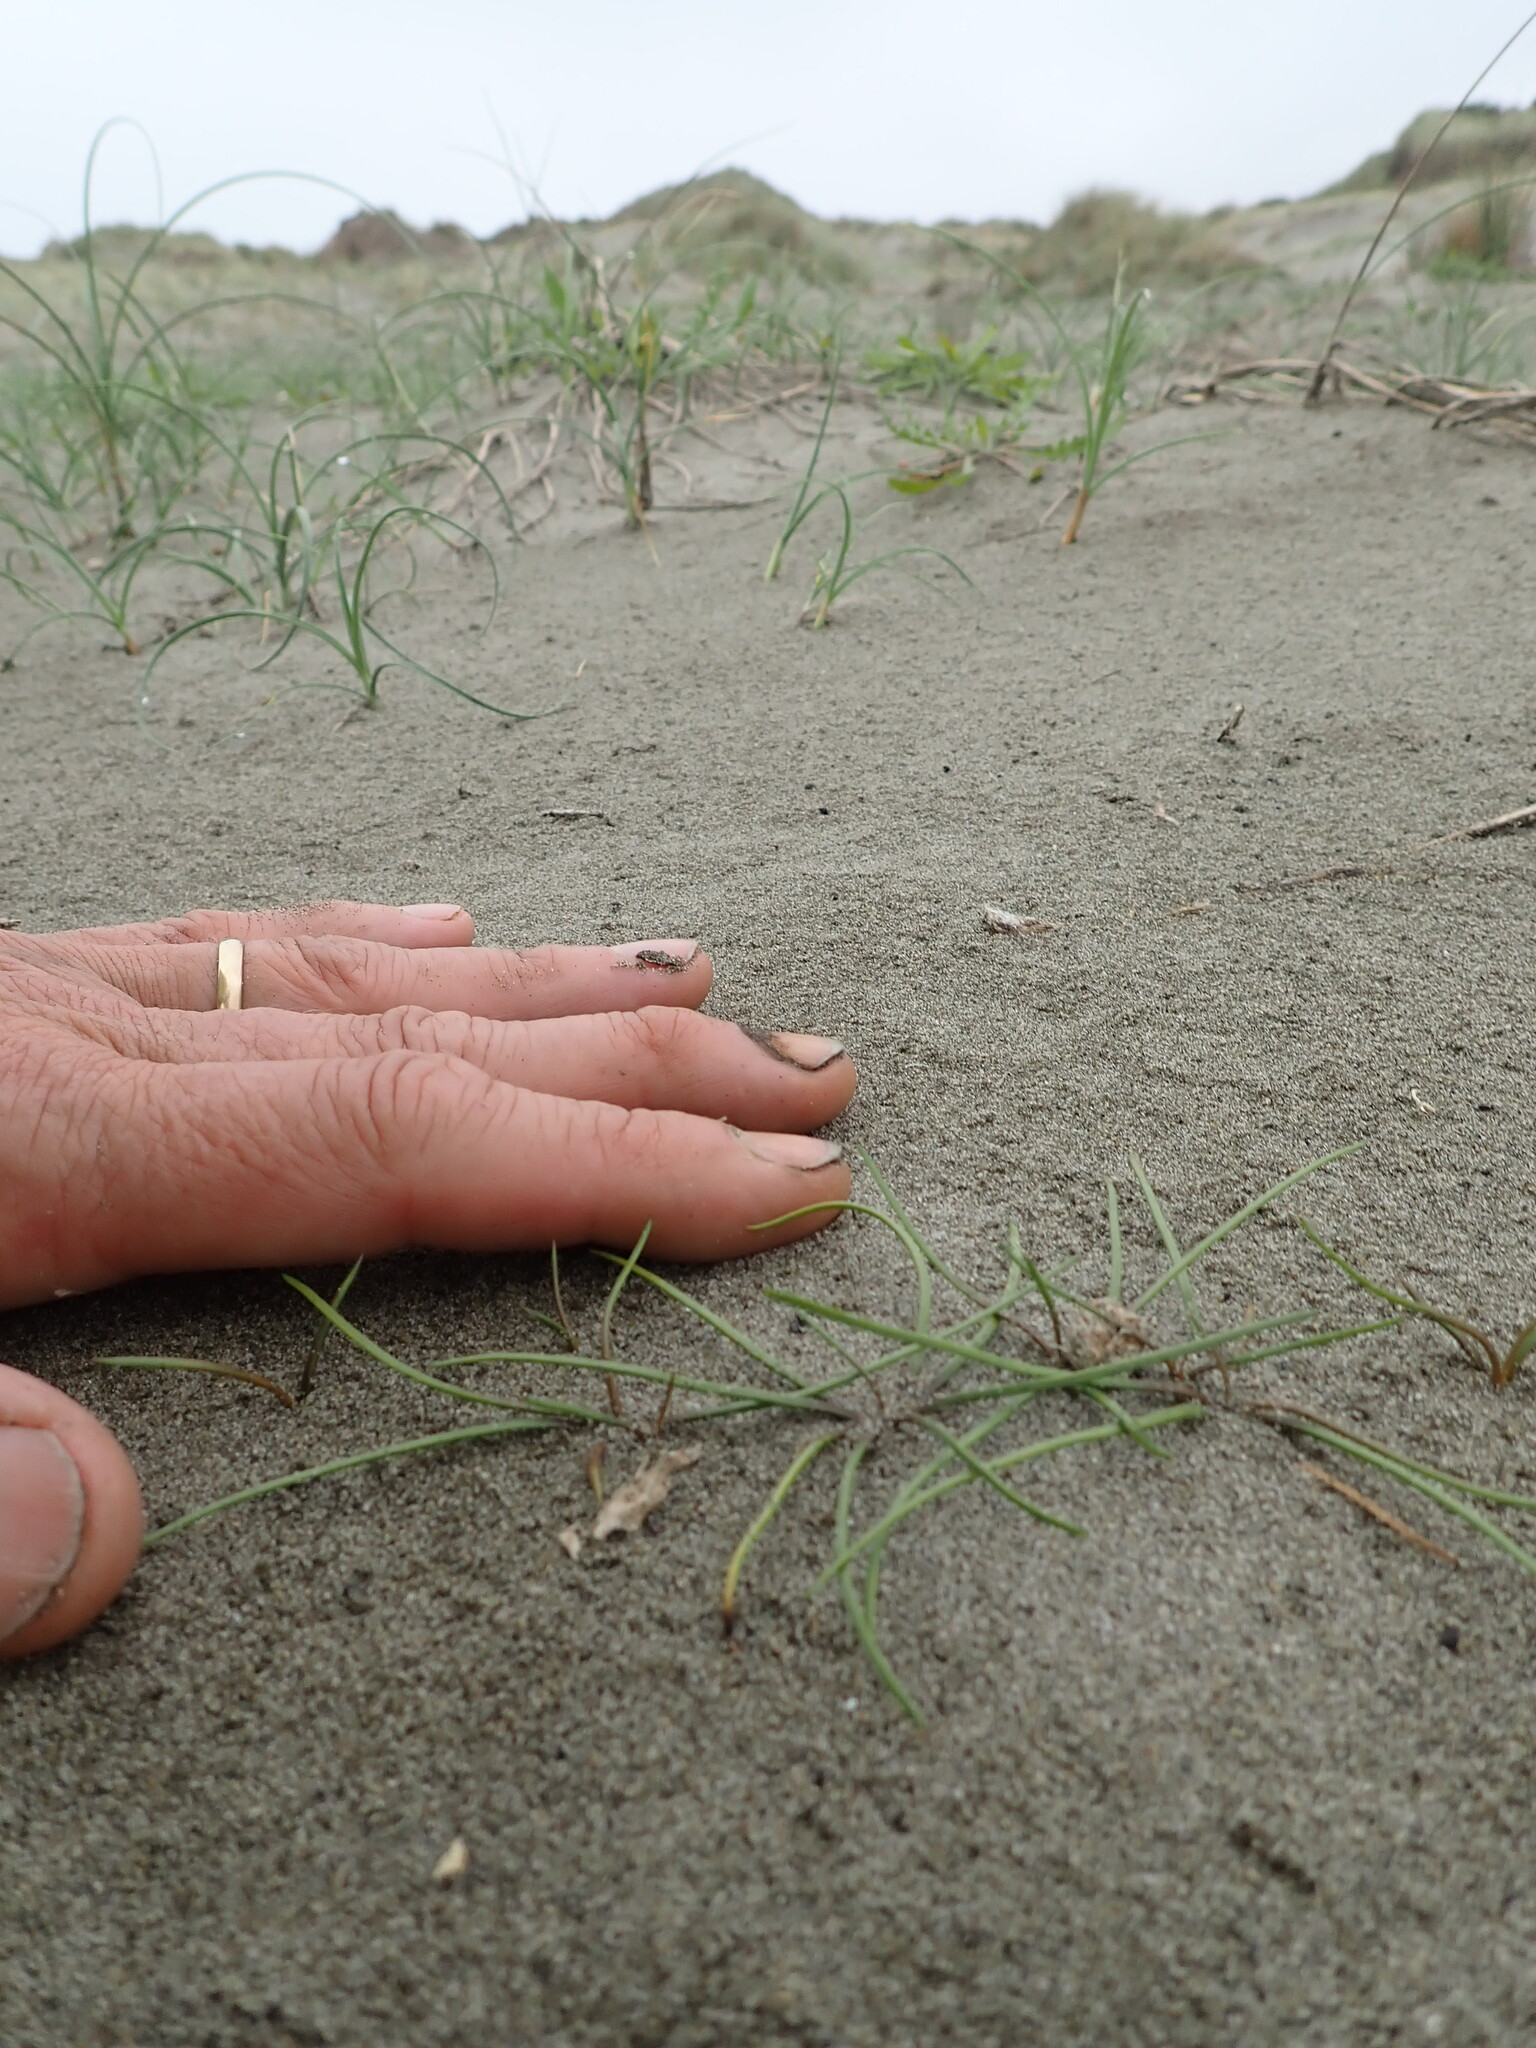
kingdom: Plantae
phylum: Tracheophyta
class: Liliopsida
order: Alismatales
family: Juncaginaceae
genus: Triglochin
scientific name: Triglochin striata
